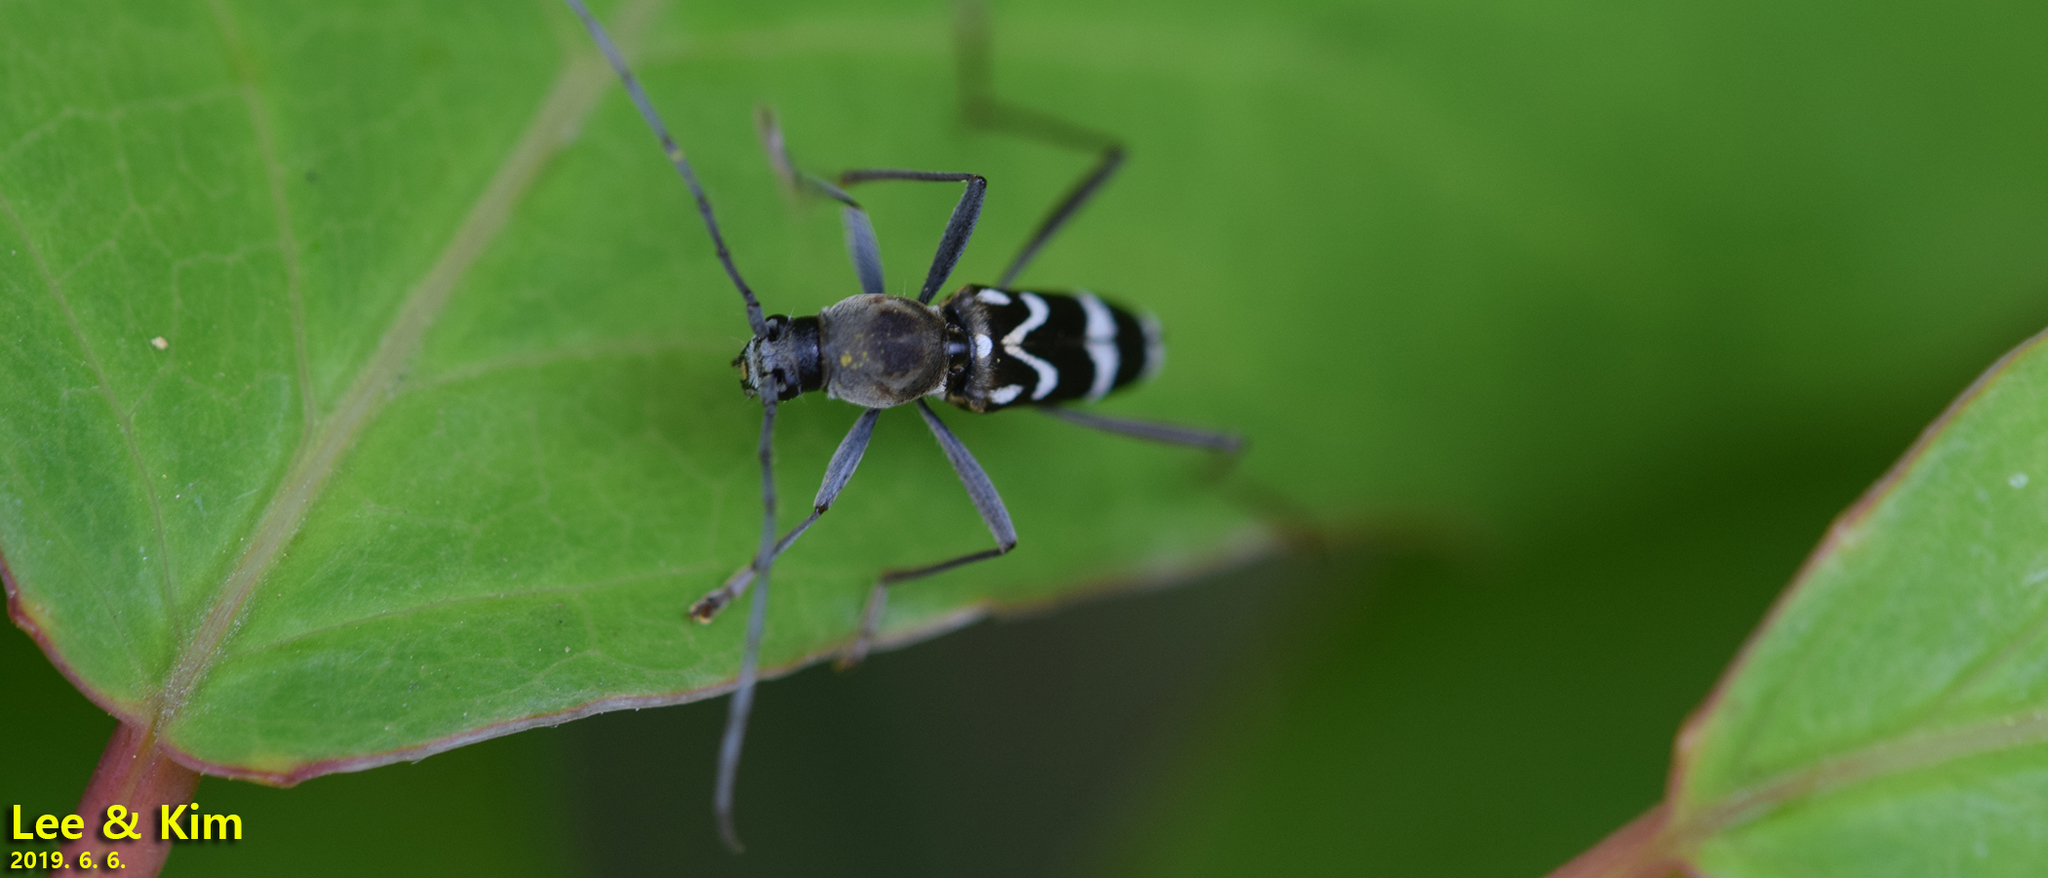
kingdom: Animalia
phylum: Arthropoda
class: Insecta
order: Coleoptera
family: Cerambycidae
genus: Rhaphuma
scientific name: Rhaphuma gracilipes
